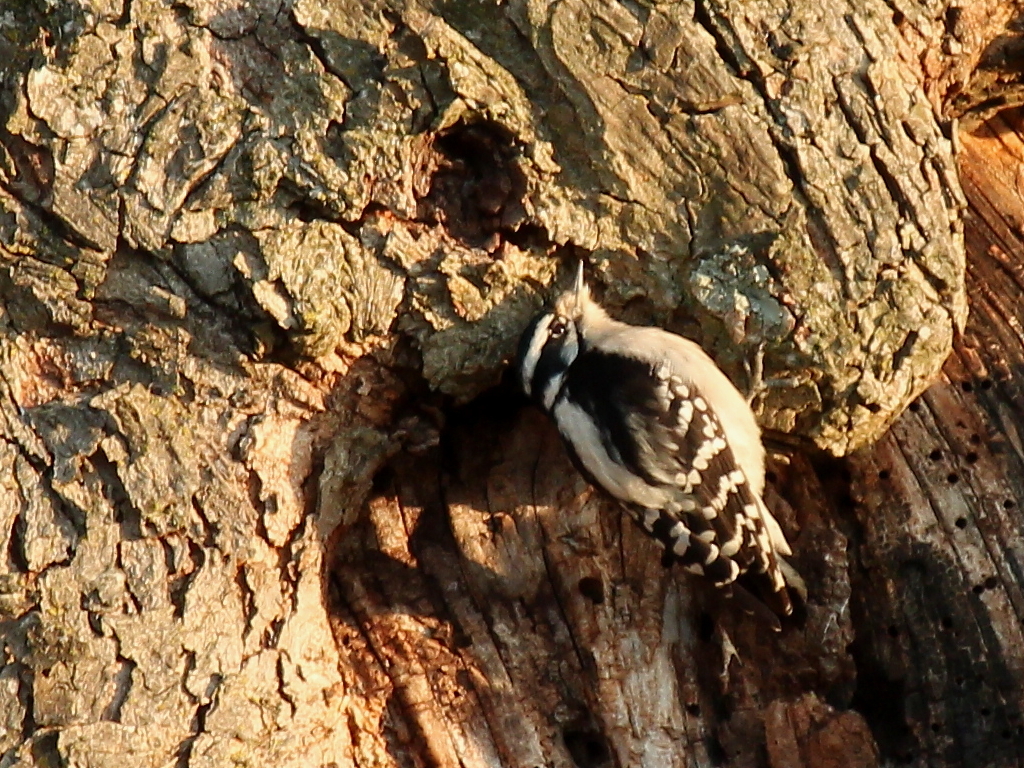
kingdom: Animalia
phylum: Chordata
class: Aves
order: Piciformes
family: Picidae
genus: Dryobates
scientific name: Dryobates pubescens
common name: Downy woodpecker
